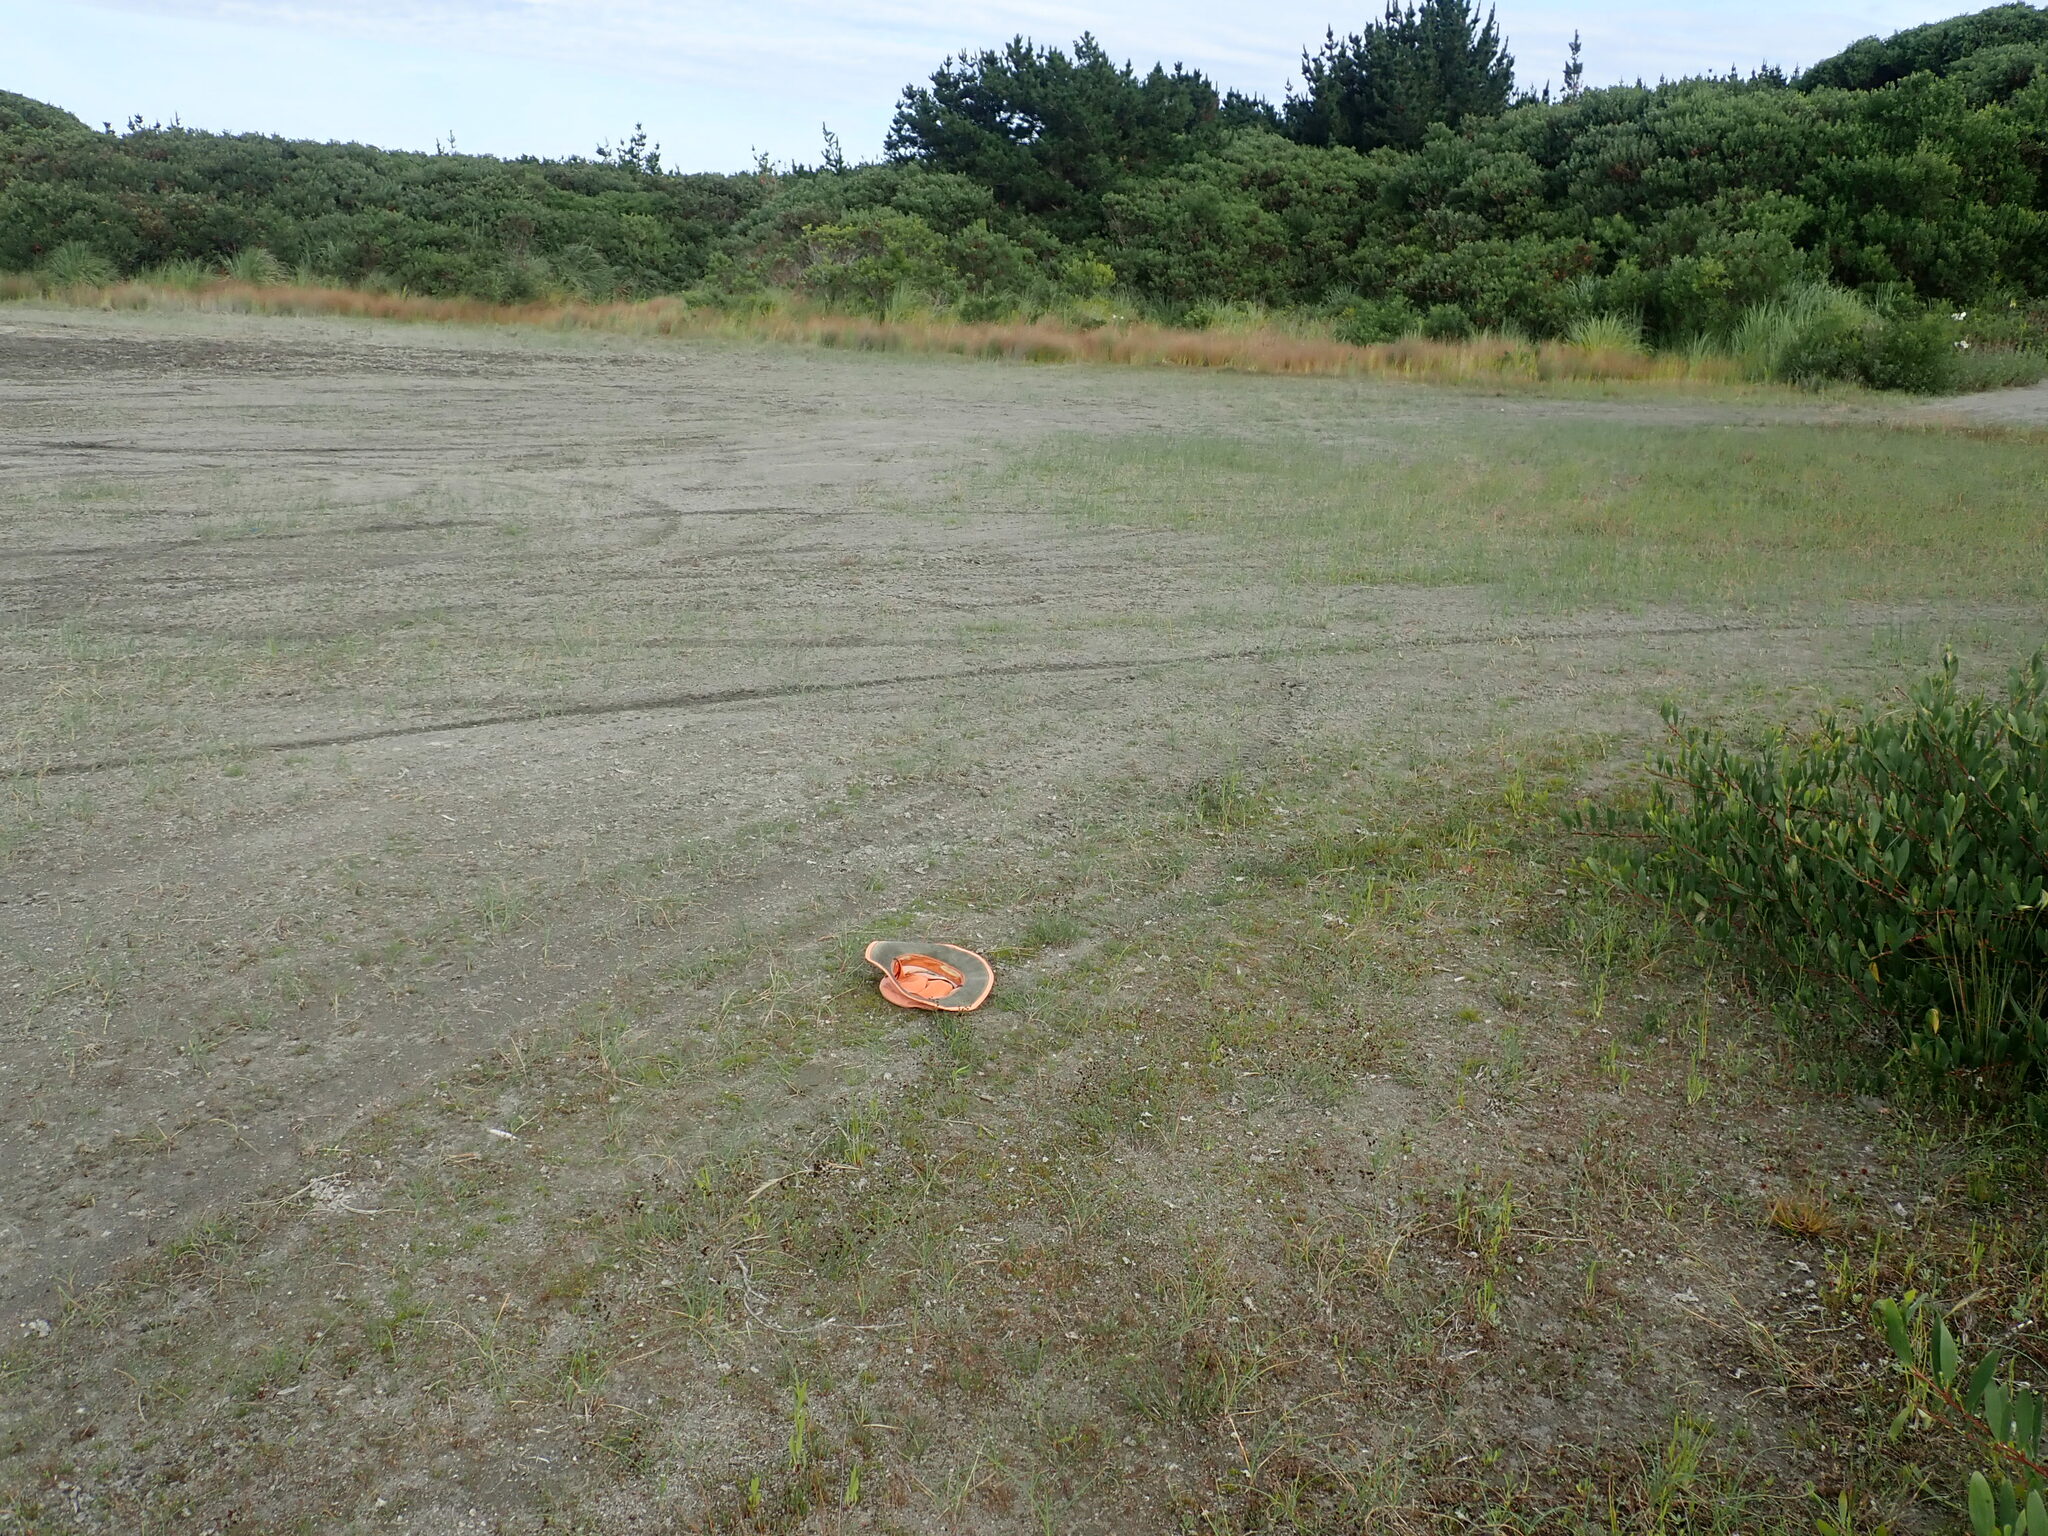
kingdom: Plantae
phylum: Tracheophyta
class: Liliopsida
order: Poales
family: Juncaceae
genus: Juncus
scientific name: Juncus bufonius
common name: Toad rush
